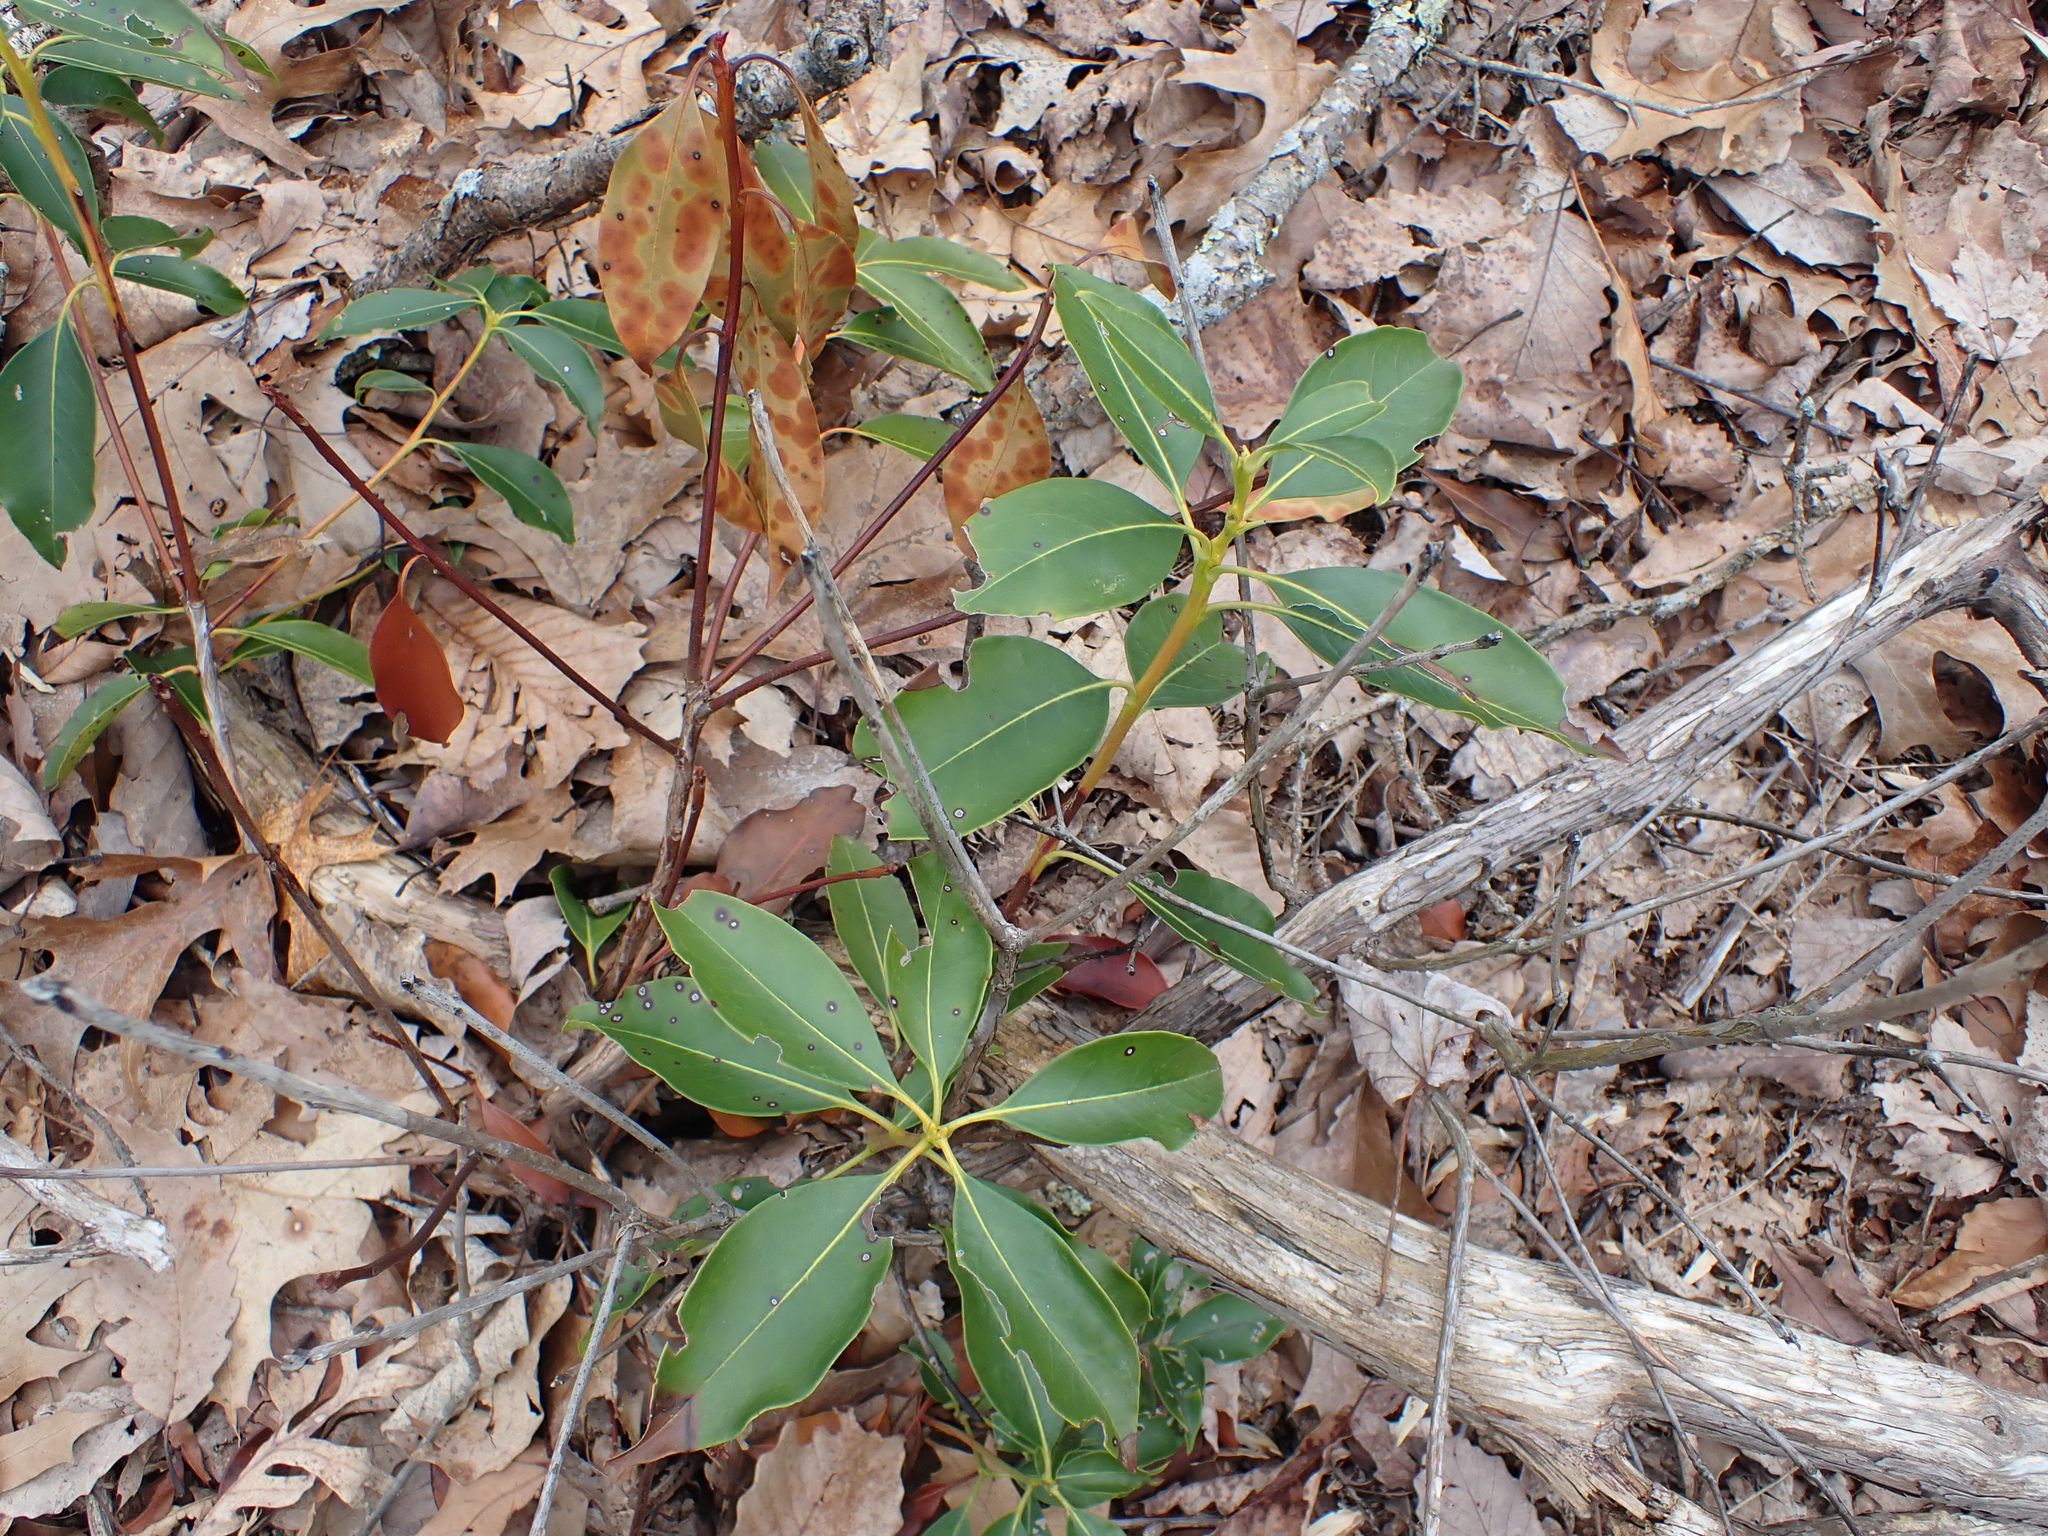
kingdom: Plantae
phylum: Tracheophyta
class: Magnoliopsida
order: Ericales
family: Ericaceae
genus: Kalmia
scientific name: Kalmia latifolia
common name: Mountain-laurel
